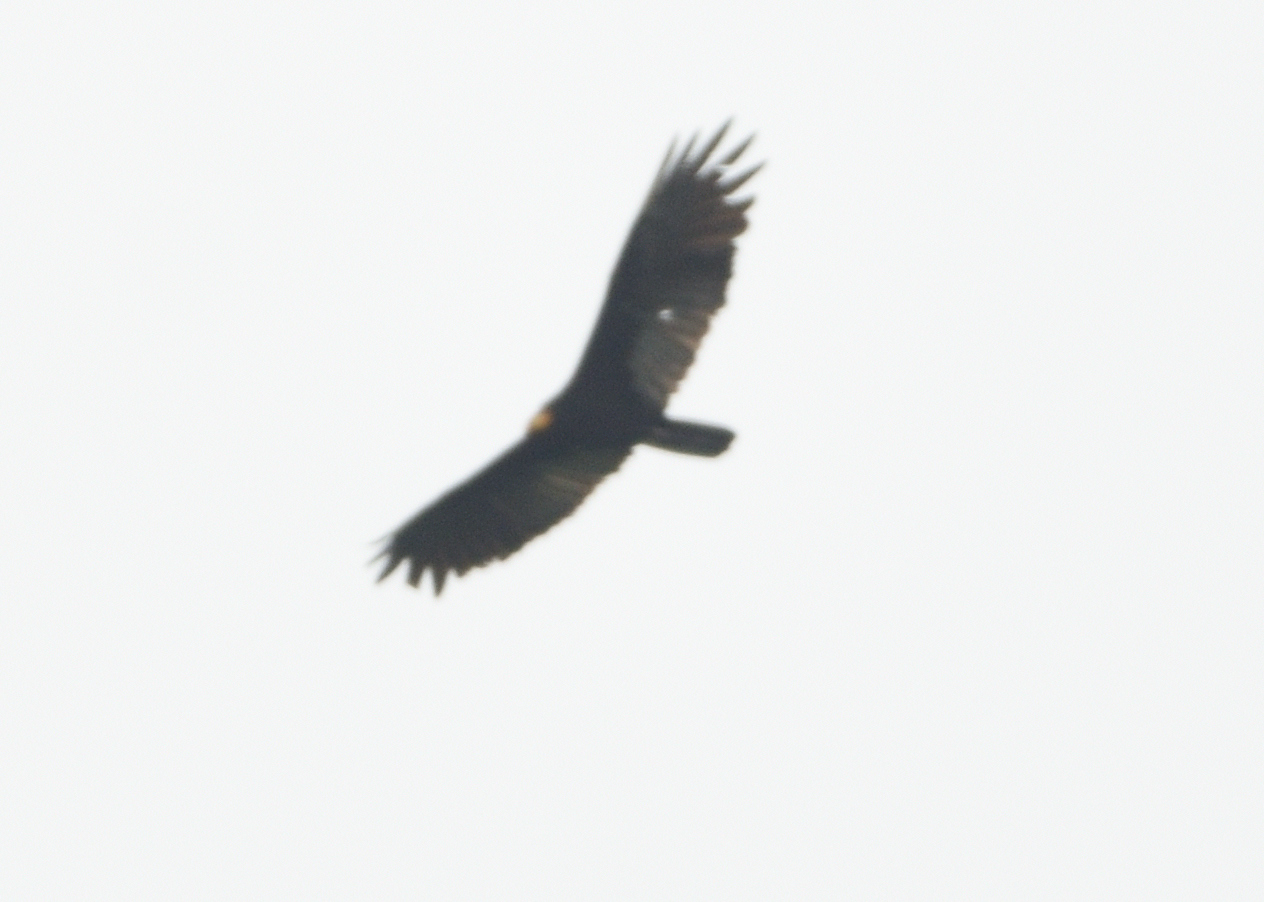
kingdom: Animalia
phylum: Chordata
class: Aves
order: Accipitriformes
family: Cathartidae
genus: Cathartes
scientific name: Cathartes melambrotus
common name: Greater yellow-headed vulture
